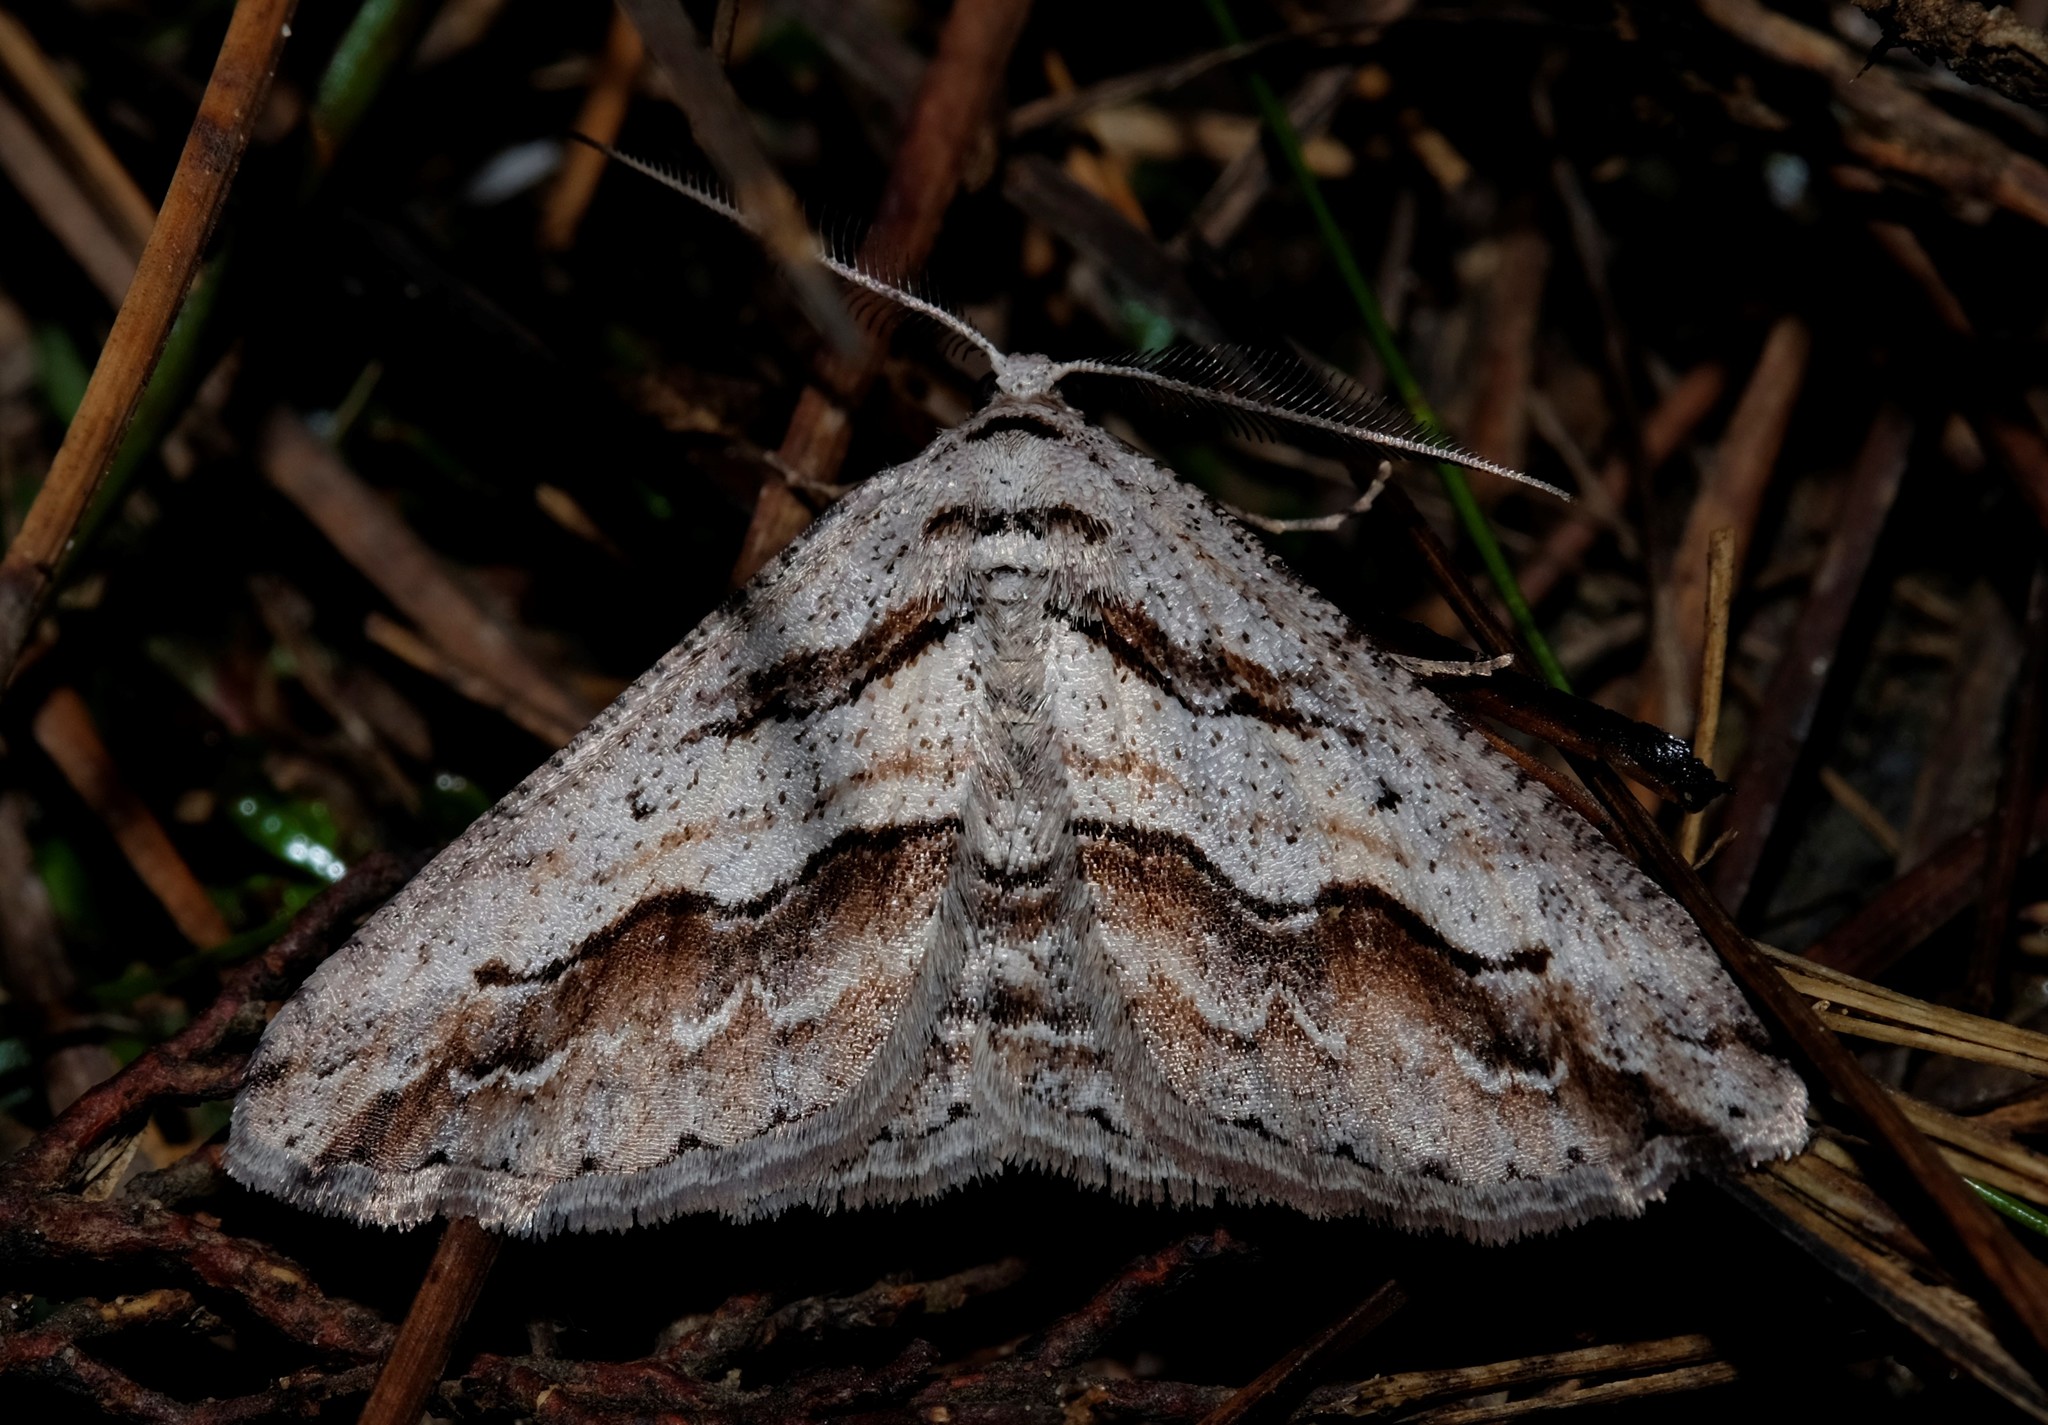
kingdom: Animalia
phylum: Arthropoda
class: Insecta
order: Lepidoptera
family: Geometridae
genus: Syneora
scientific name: Syneora mundifera
